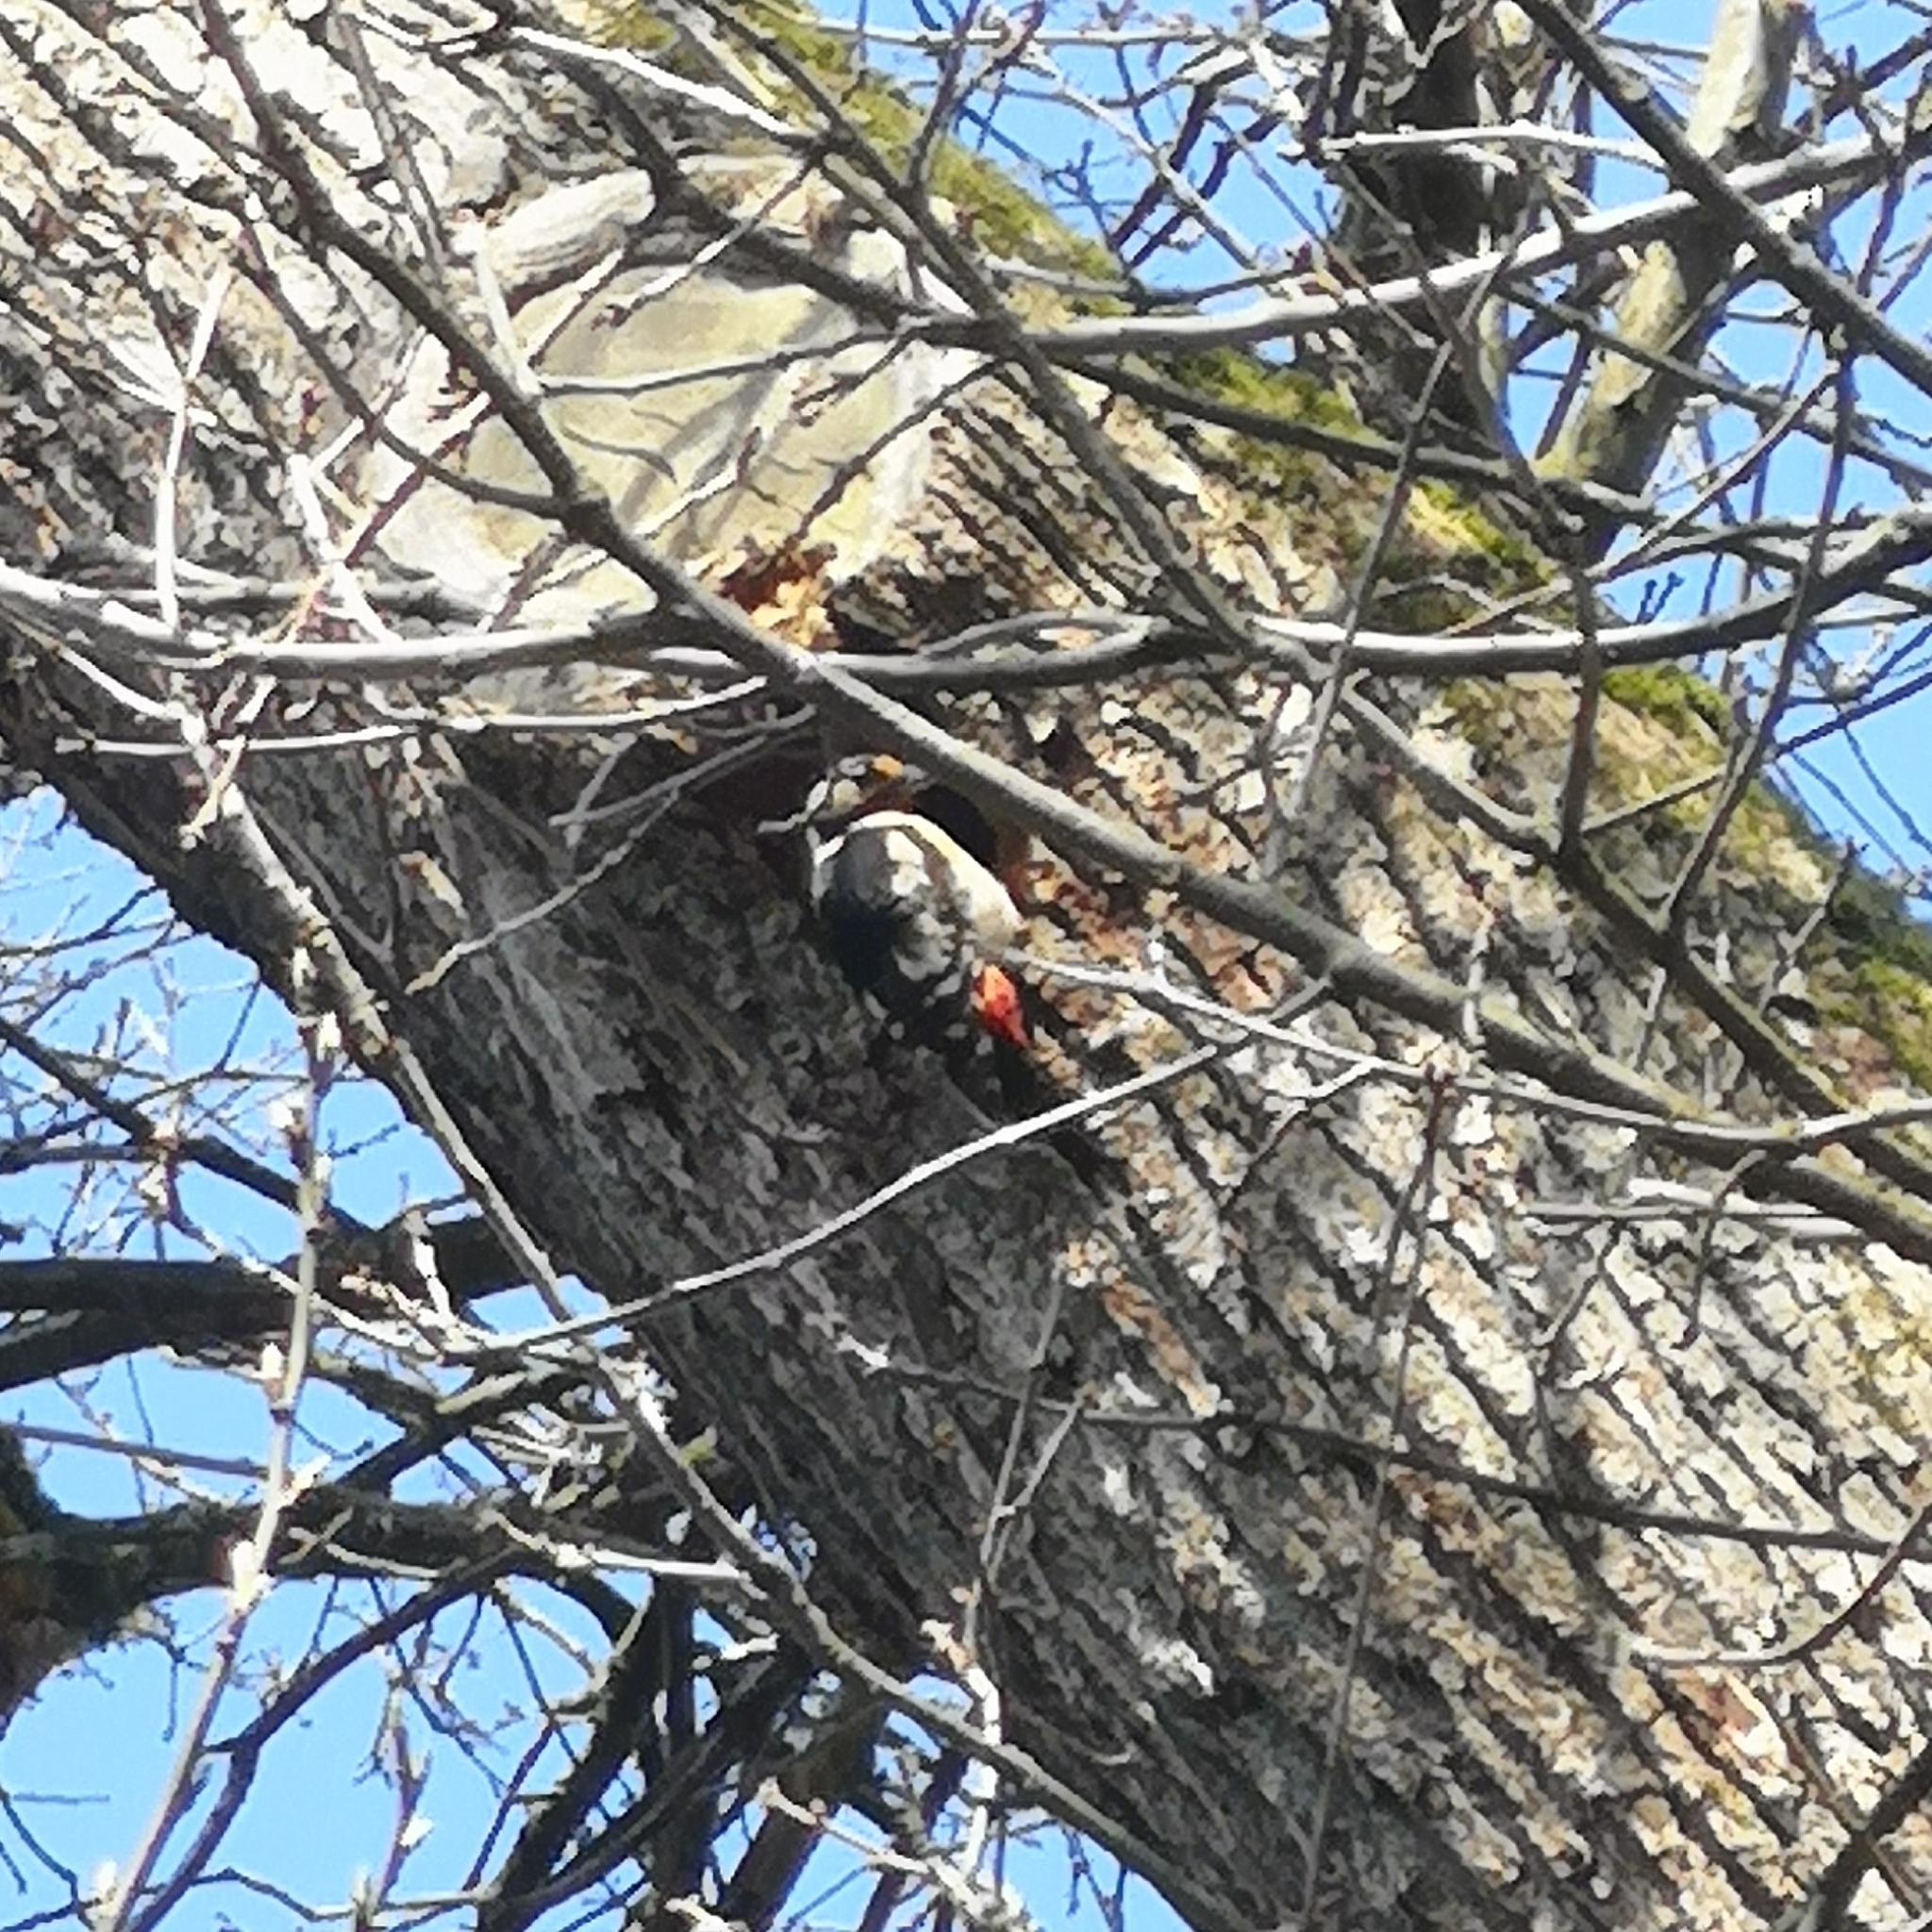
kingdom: Animalia
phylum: Chordata
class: Aves
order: Piciformes
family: Picidae
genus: Dendrocopos
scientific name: Dendrocopos major
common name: Great spotted woodpecker
